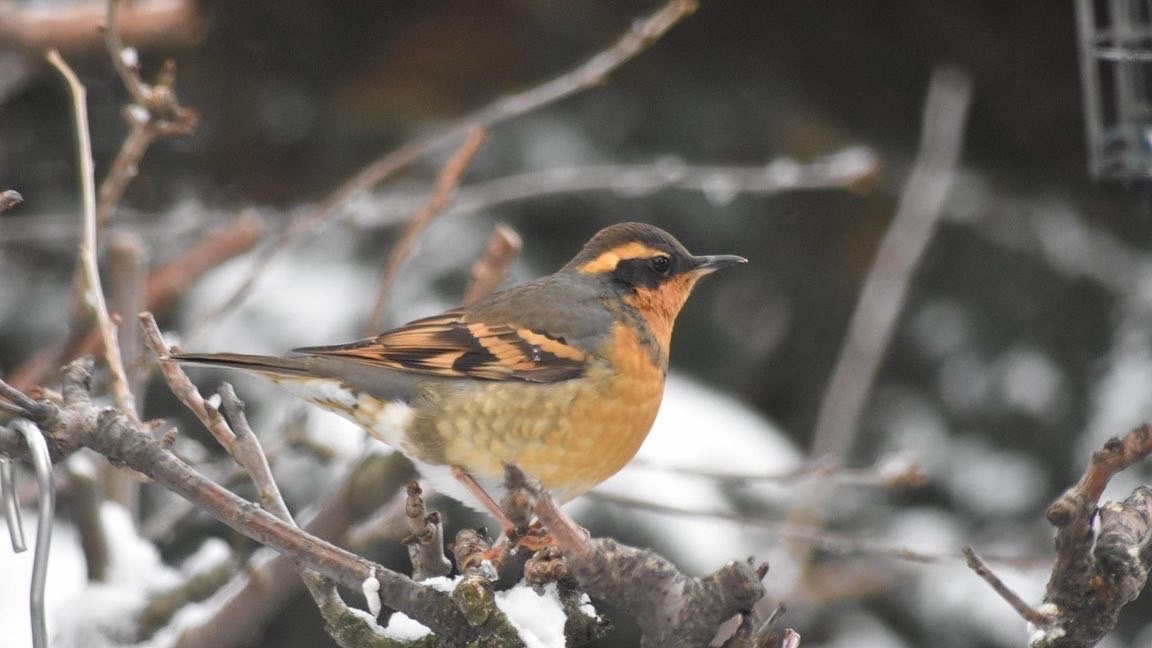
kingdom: Animalia
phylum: Chordata
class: Aves
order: Passeriformes
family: Turdidae
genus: Ixoreus
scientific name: Ixoreus naevius
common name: Varied thrush
